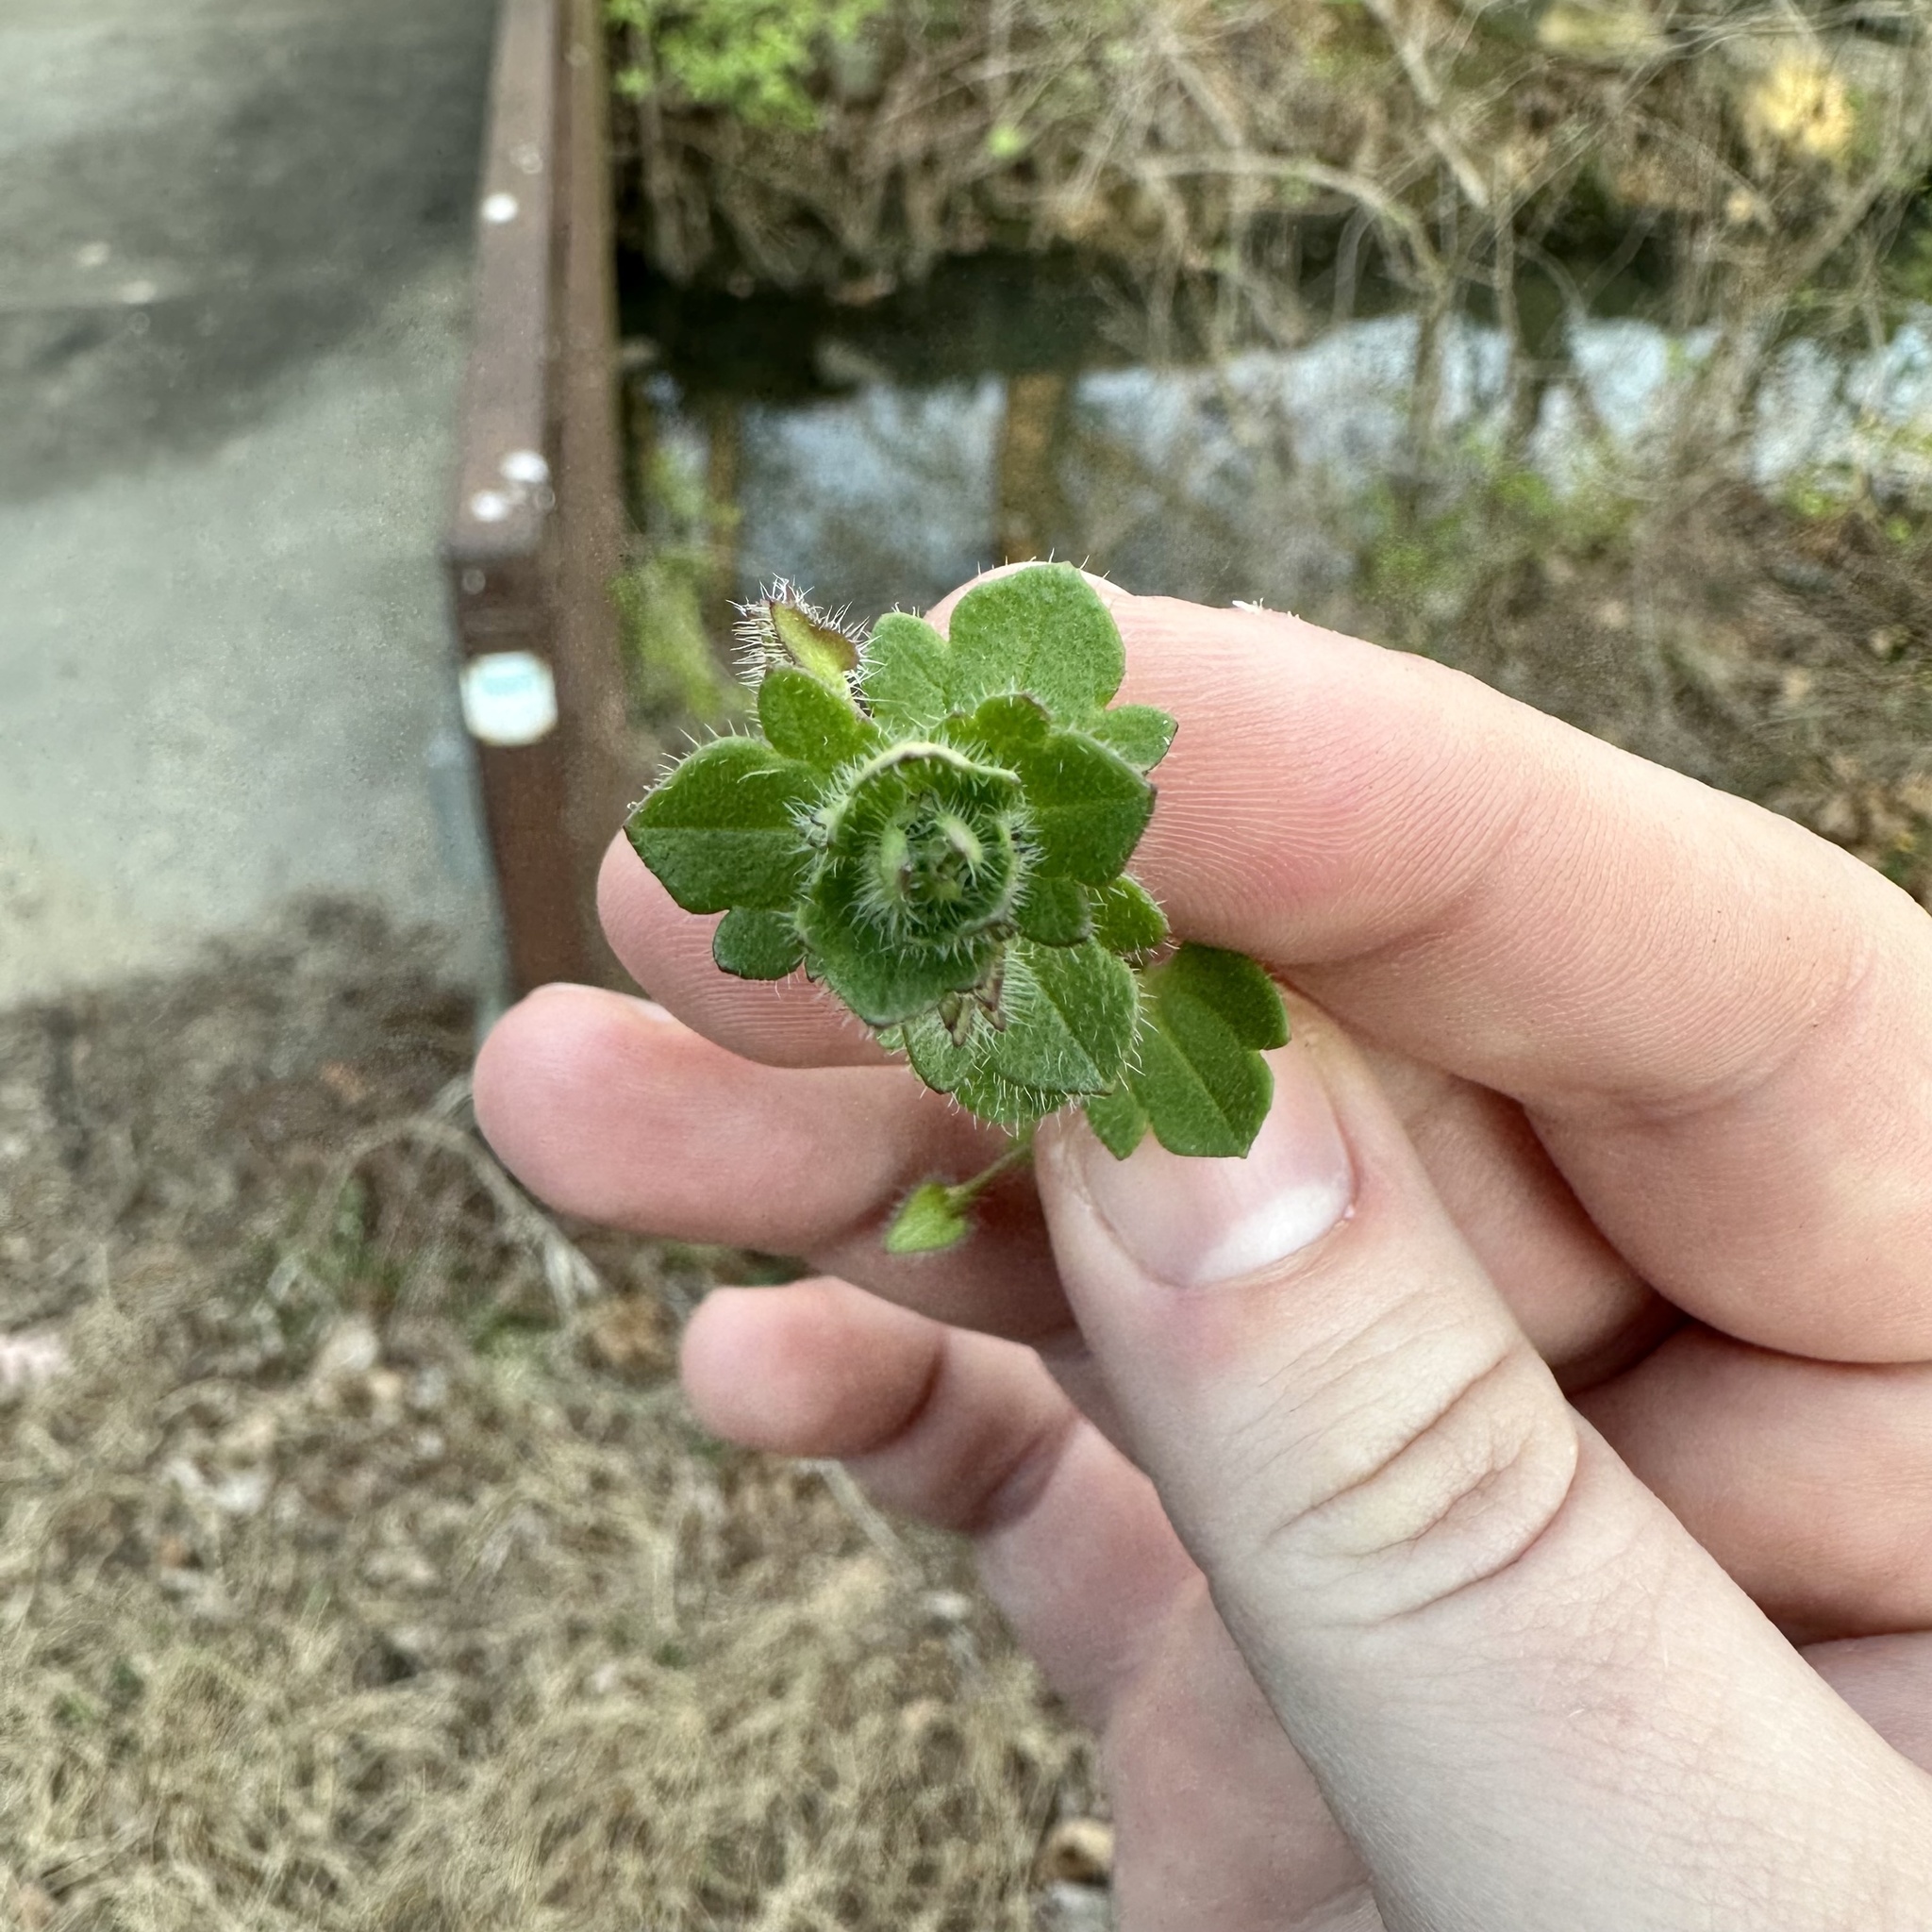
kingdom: Plantae
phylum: Tracheophyta
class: Magnoliopsida
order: Lamiales
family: Plantaginaceae
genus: Veronica
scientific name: Veronica hederifolia
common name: Ivy-leaved speedwell
